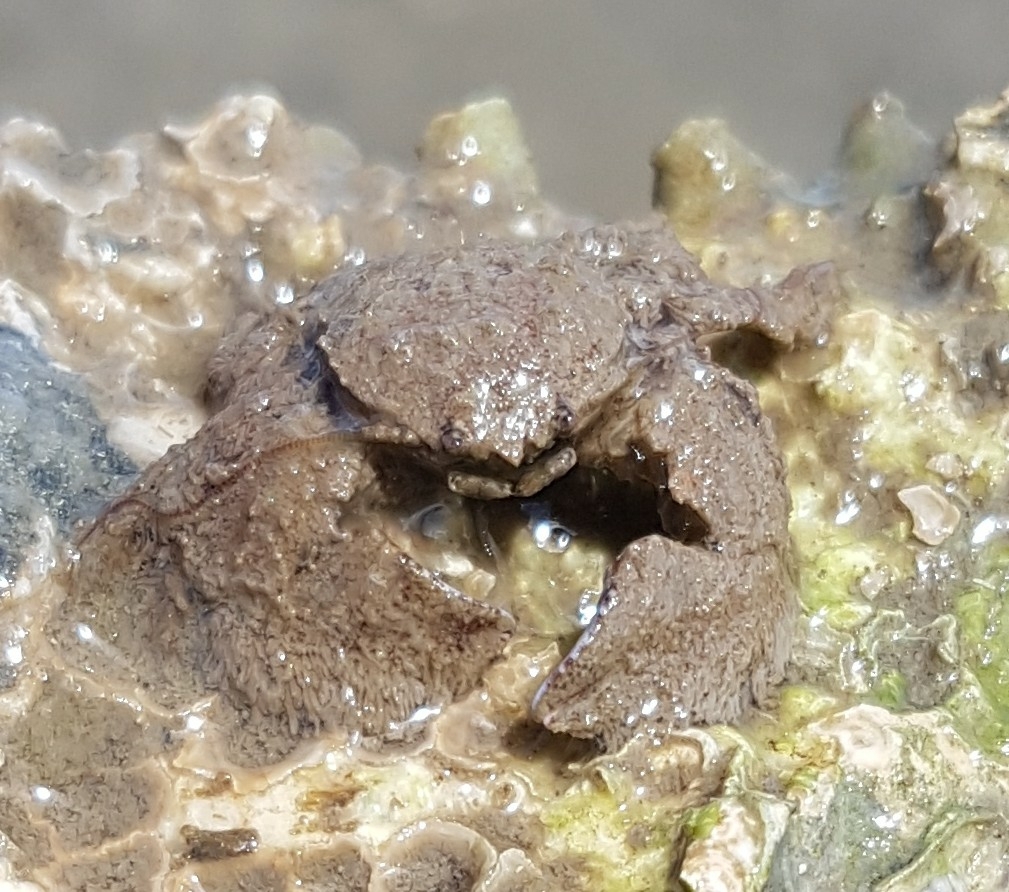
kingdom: Animalia
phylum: Arthropoda
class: Malacostraca
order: Decapoda
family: Porcellanidae
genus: Porcellana
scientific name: Porcellana platycheles
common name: Porcelain crab
